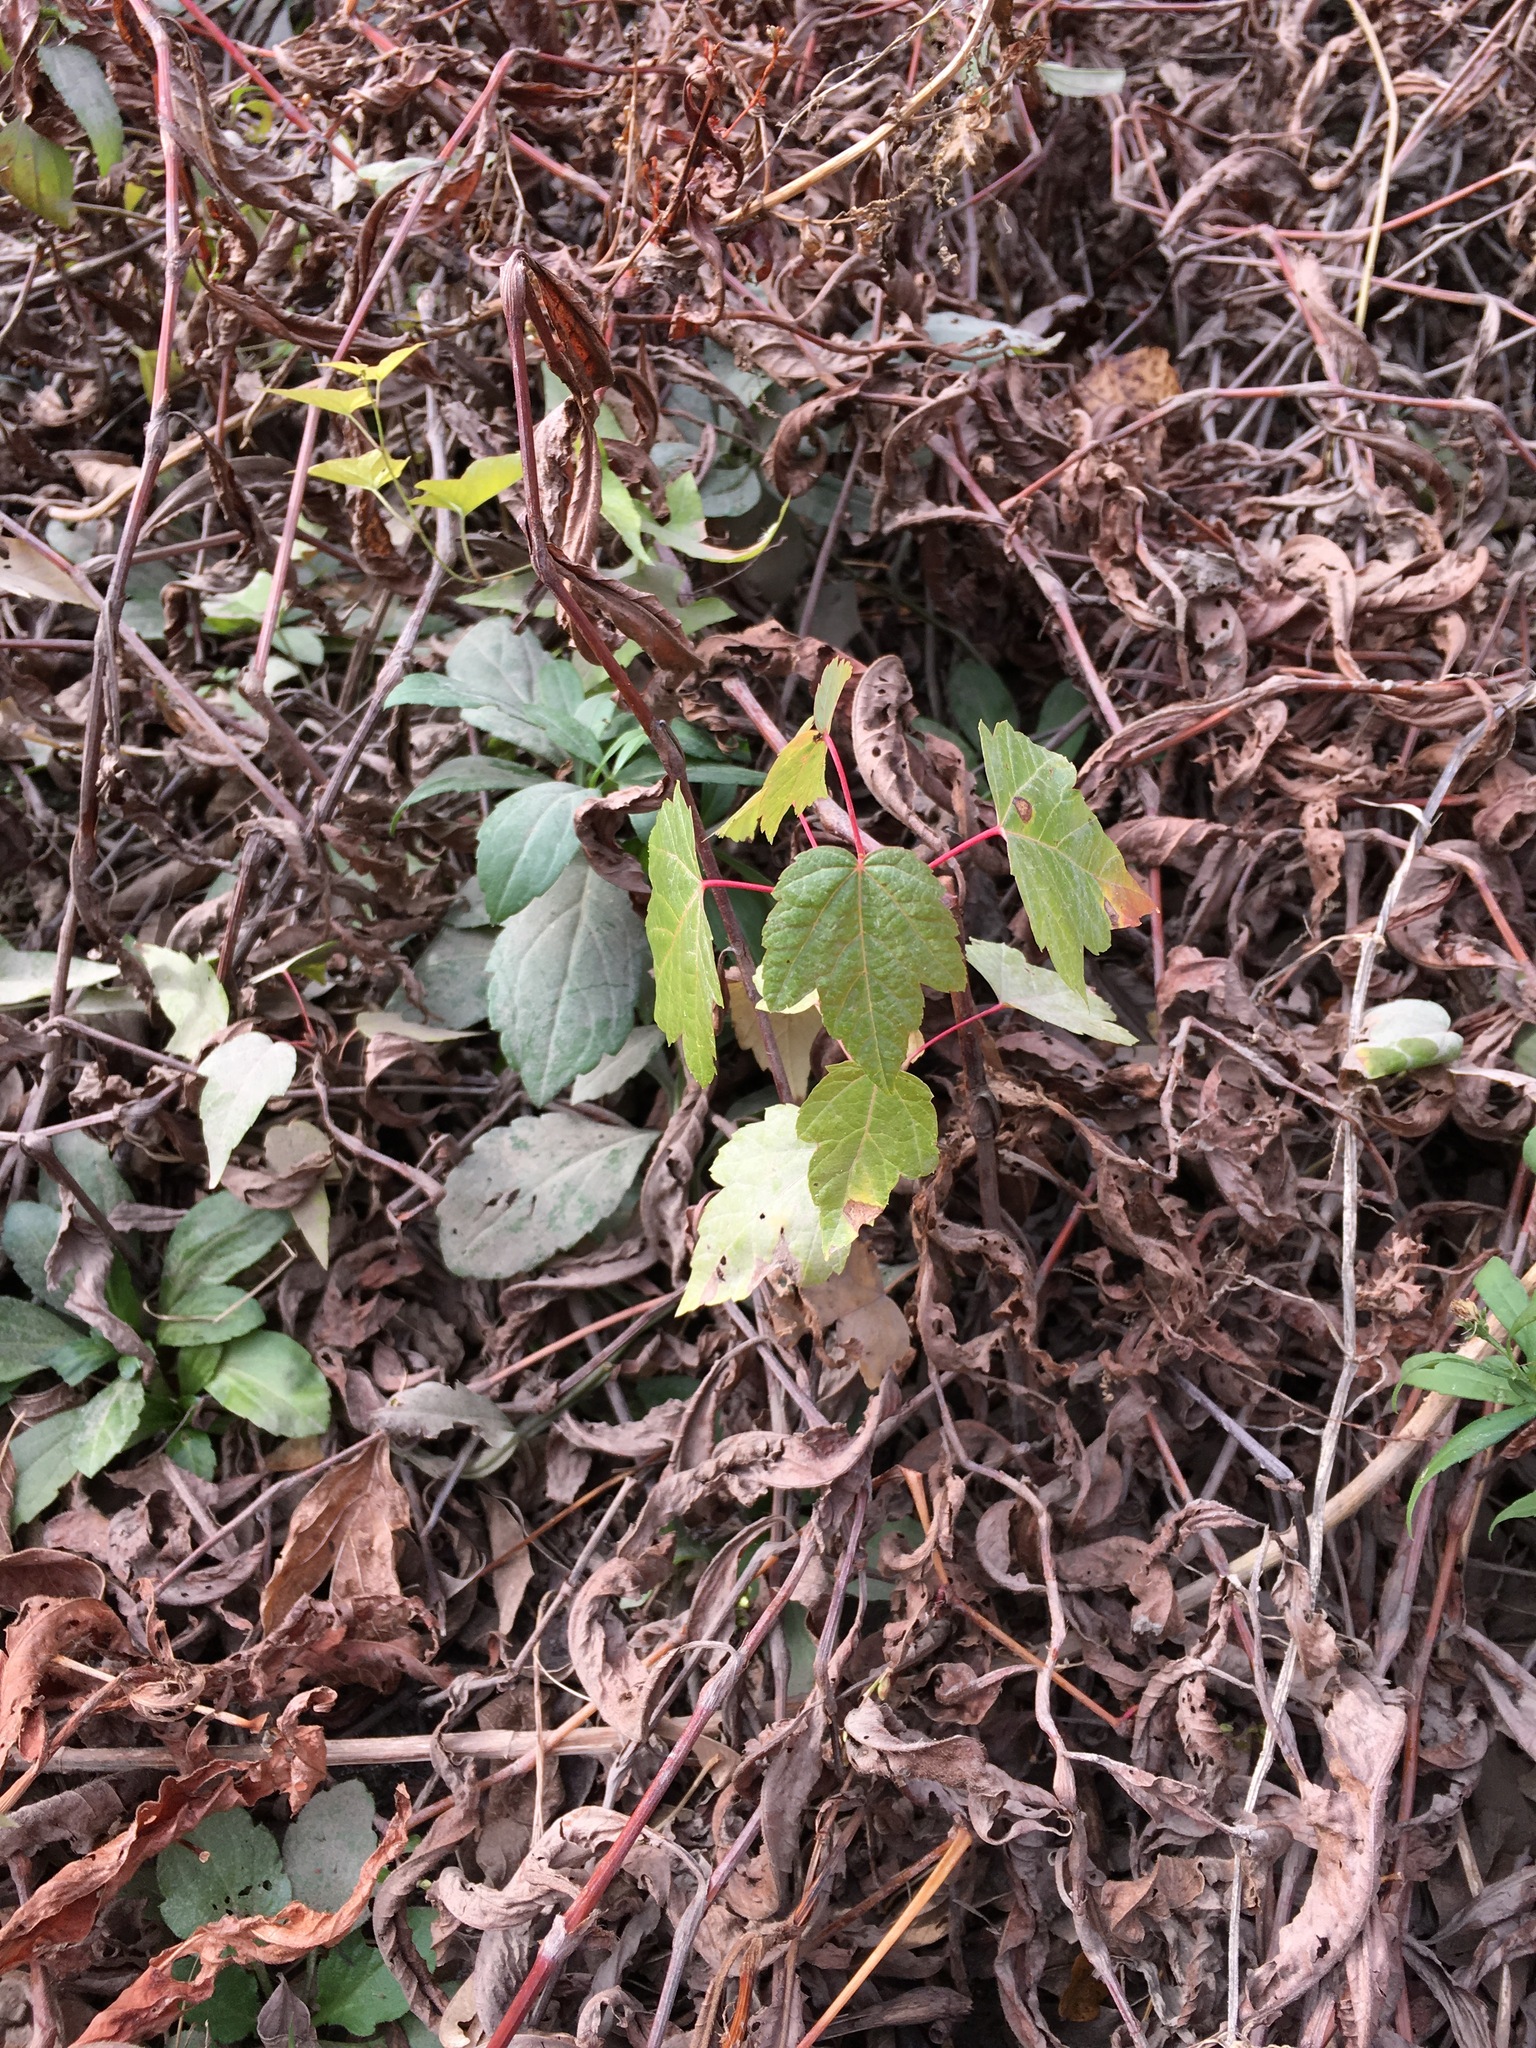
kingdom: Plantae
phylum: Tracheophyta
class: Magnoliopsida
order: Sapindales
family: Sapindaceae
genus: Acer
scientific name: Acer rubrum
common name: Red maple
